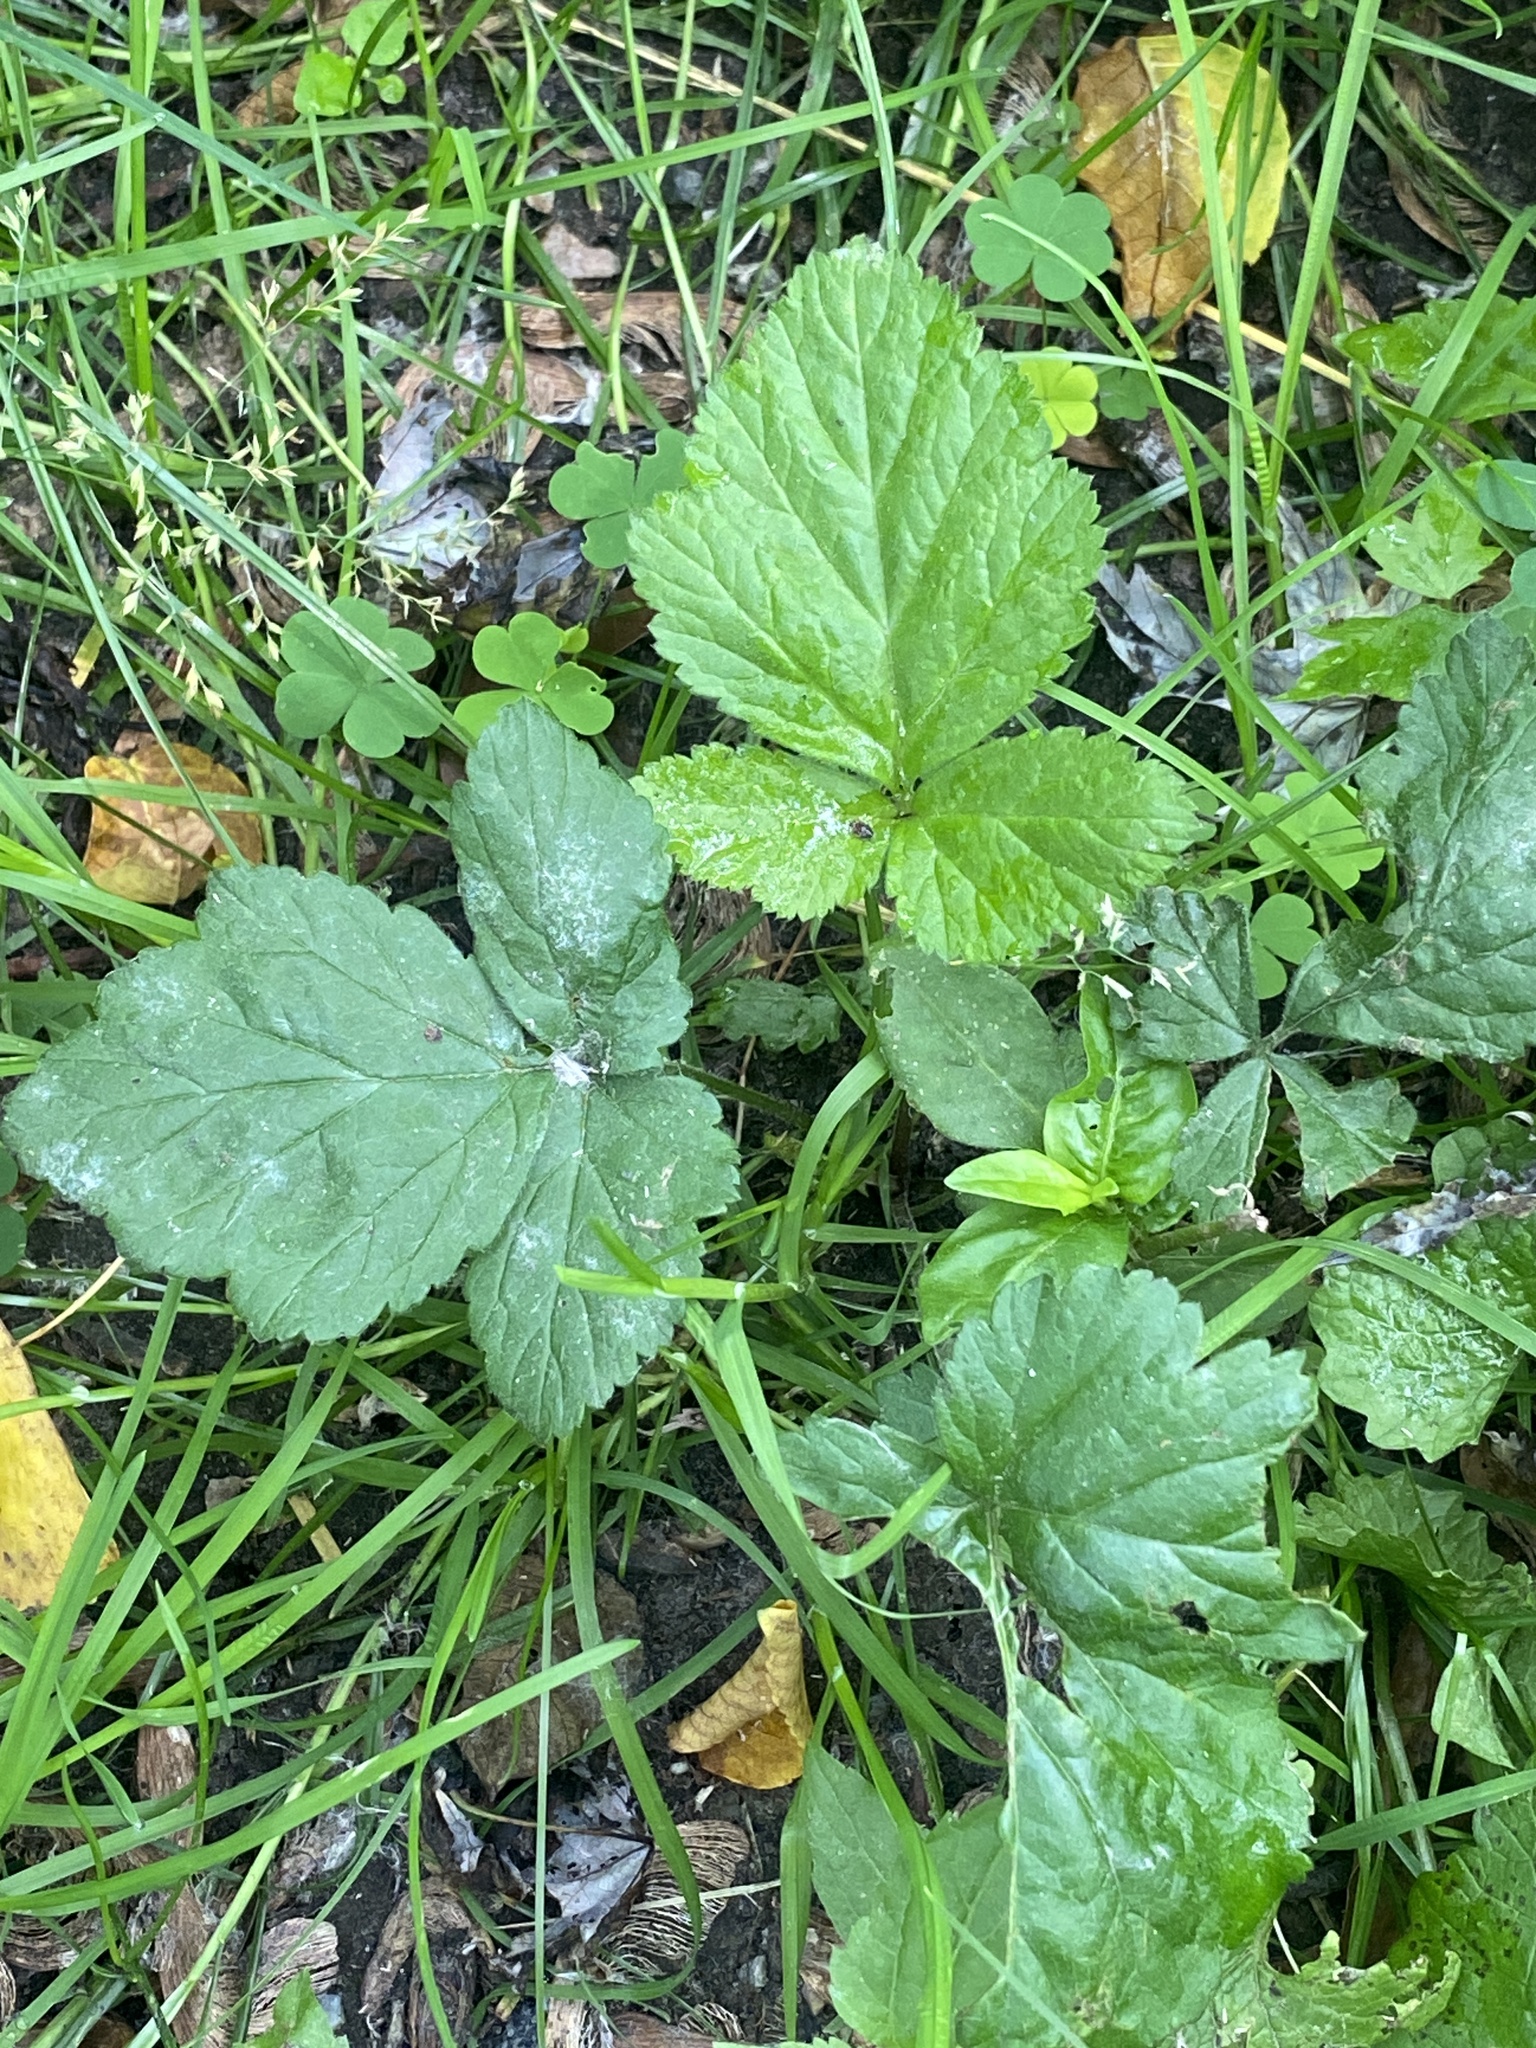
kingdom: Plantae
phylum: Tracheophyta
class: Magnoliopsida
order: Rosales
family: Rosaceae
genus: Geum
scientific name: Geum canadense
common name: White avens
